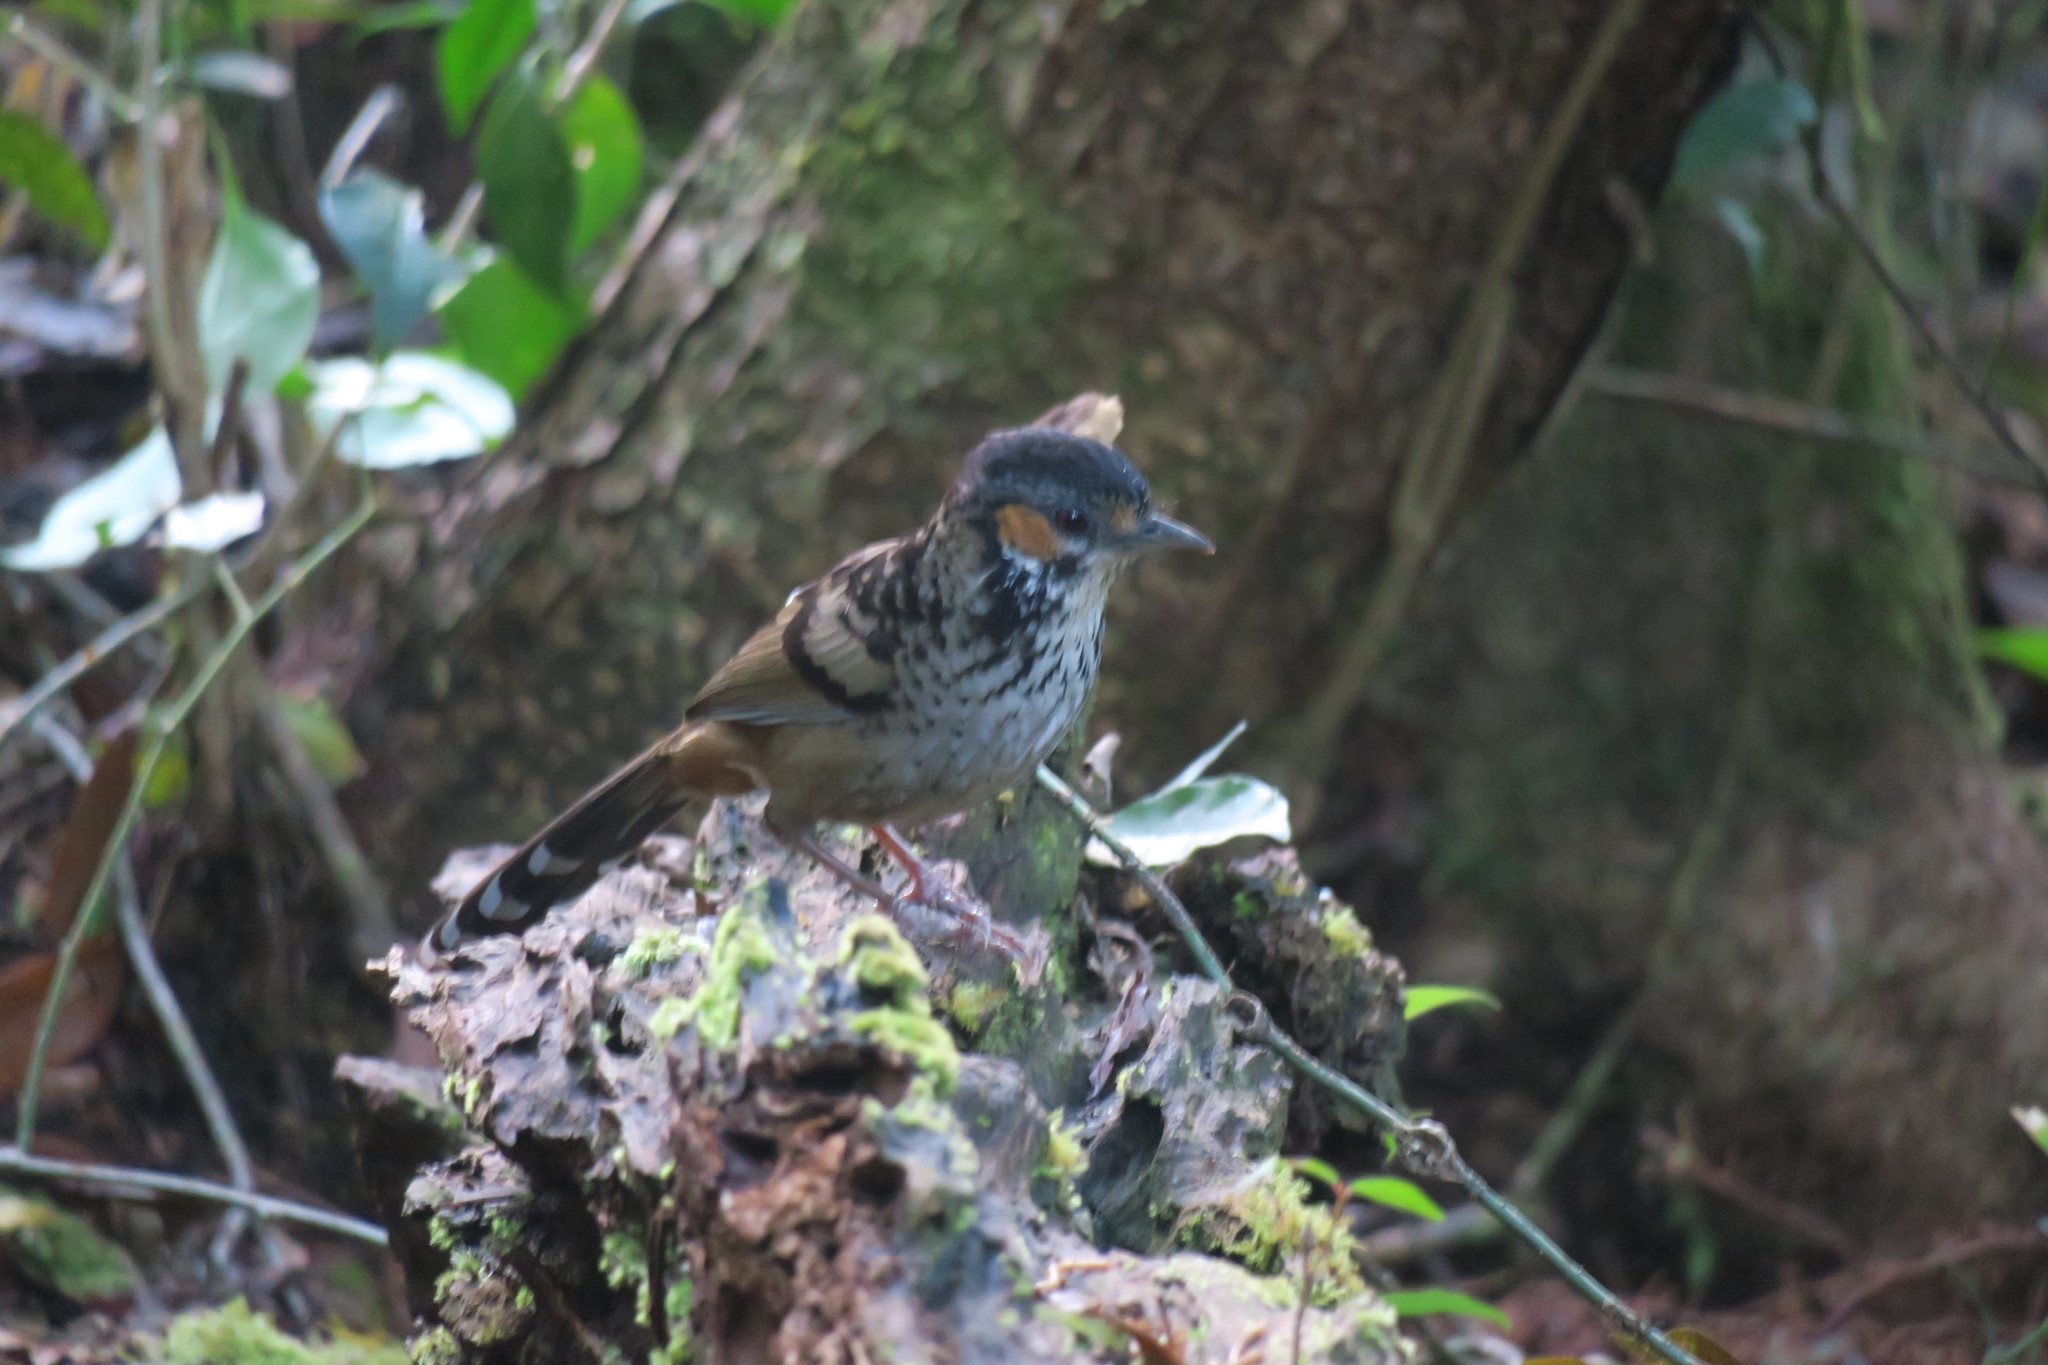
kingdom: Animalia
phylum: Chordata
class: Aves
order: Passeriformes
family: Leiothrichidae
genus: Garrulax
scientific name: Garrulax konkakinhensis
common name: Chestnut-eared laughingthrush
